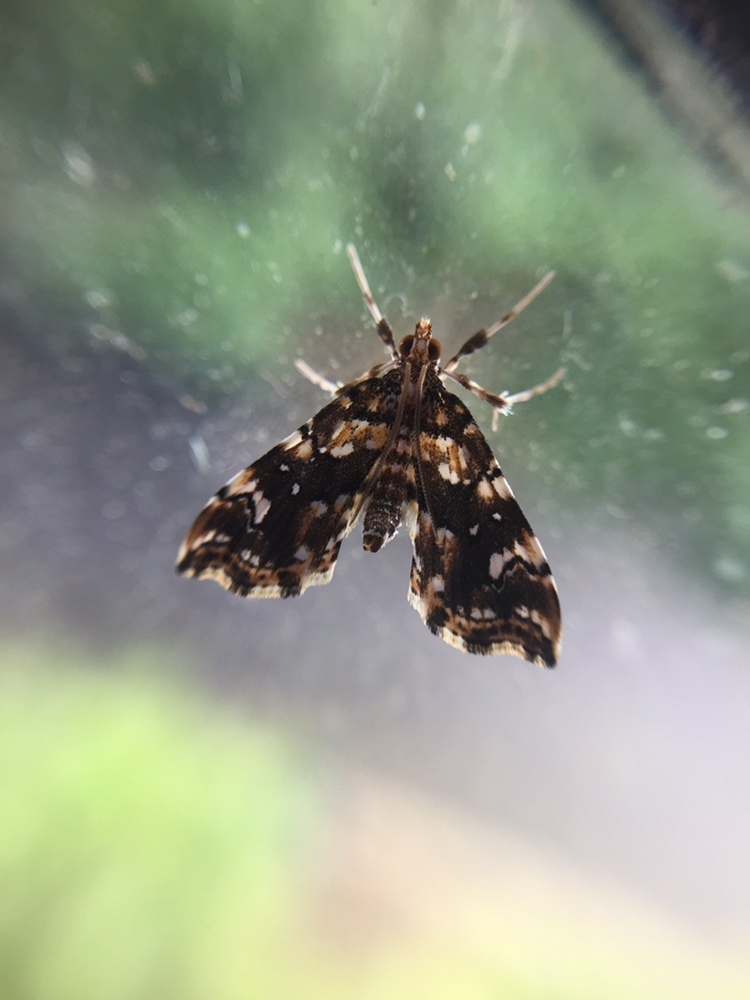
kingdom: Animalia
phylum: Arthropoda
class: Insecta
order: Lepidoptera
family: Pyralidae
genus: Musotima
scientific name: Musotima nitidalis
